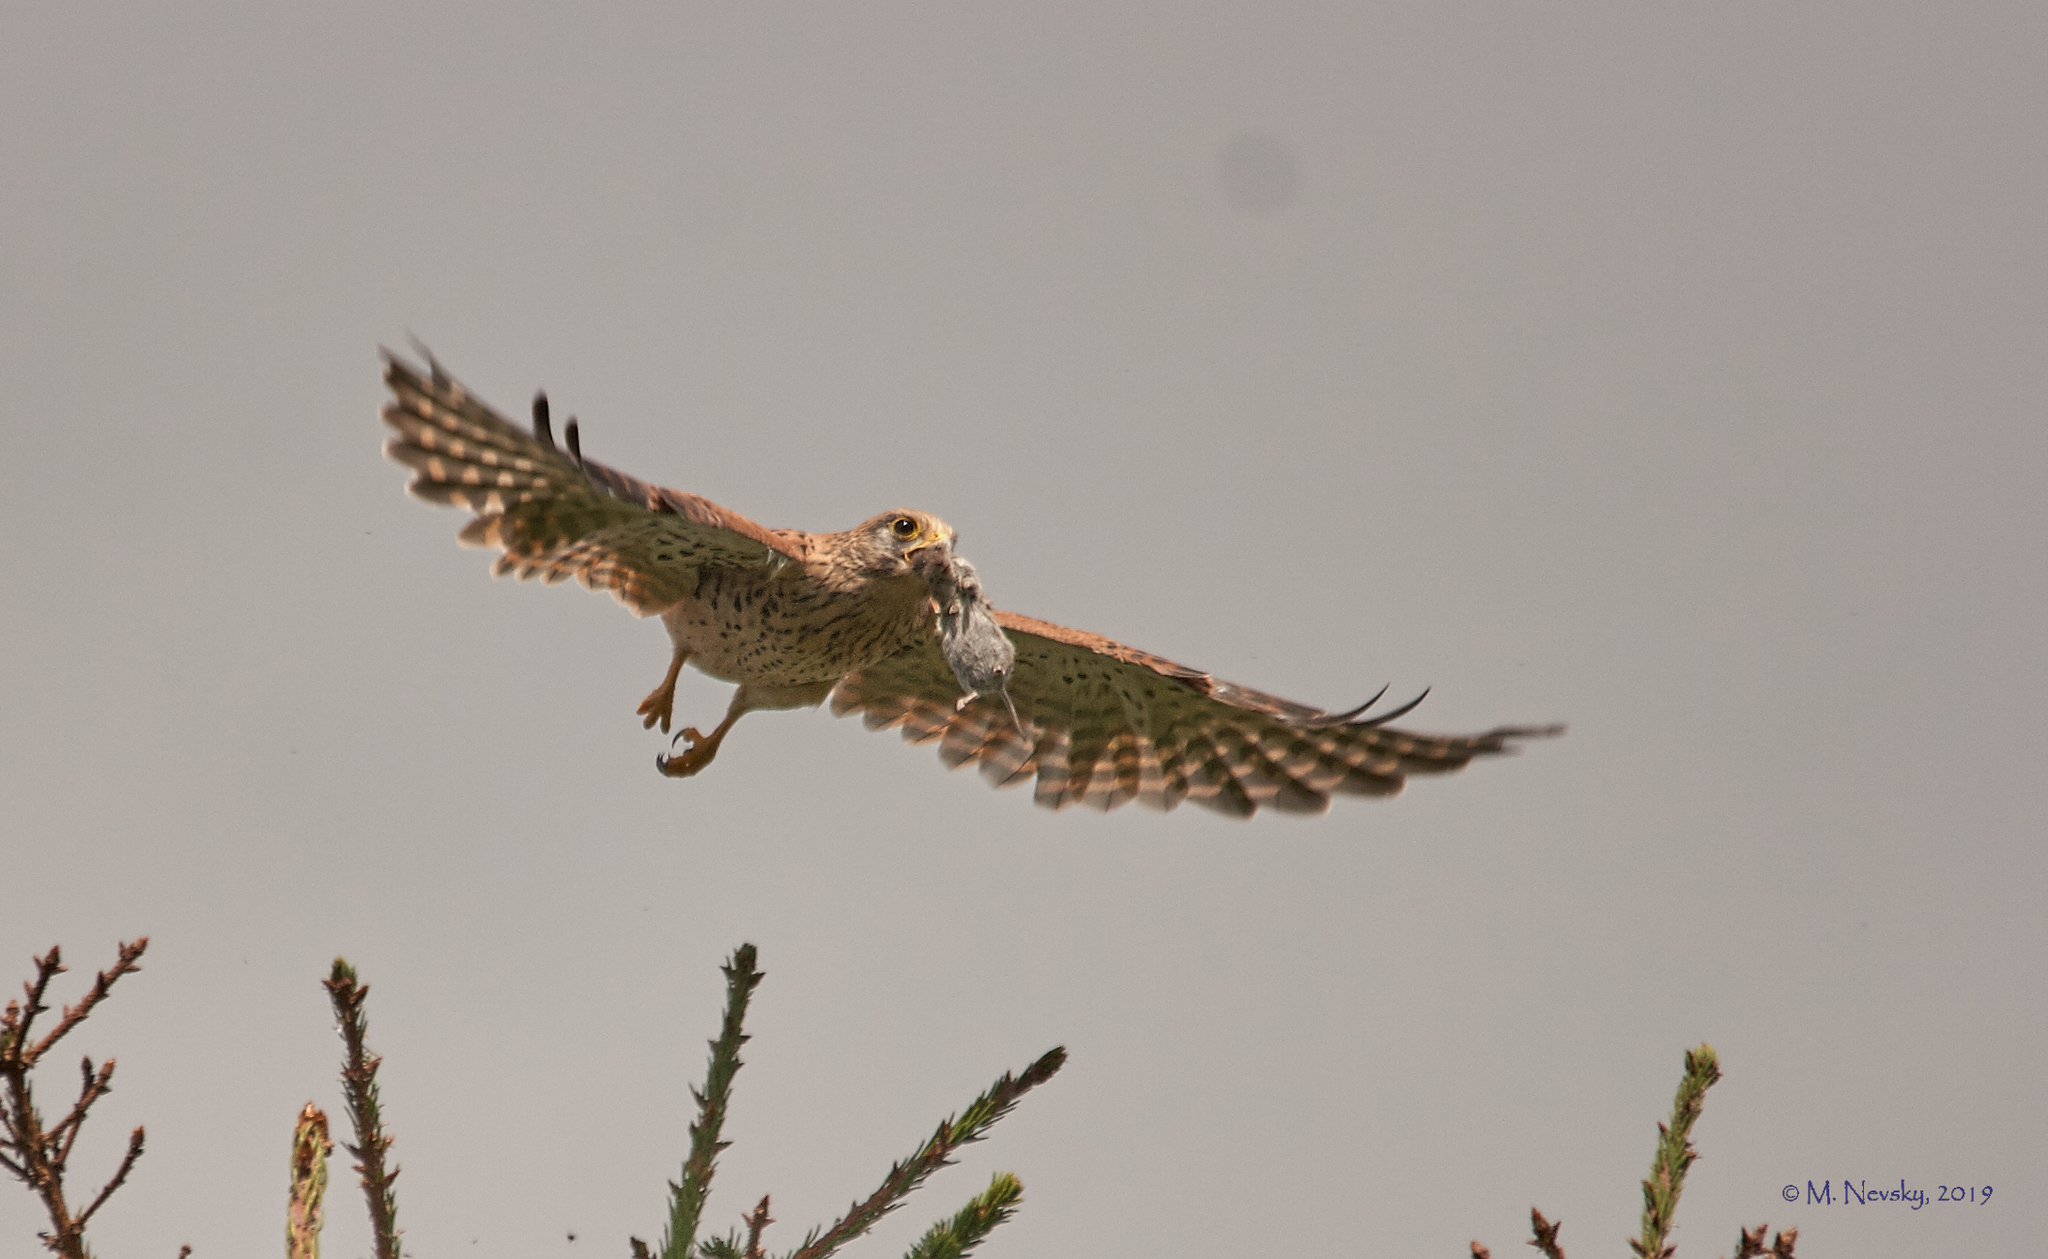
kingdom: Animalia
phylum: Chordata
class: Aves
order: Falconiformes
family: Falconidae
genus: Falco
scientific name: Falco tinnunculus
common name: Common kestrel
